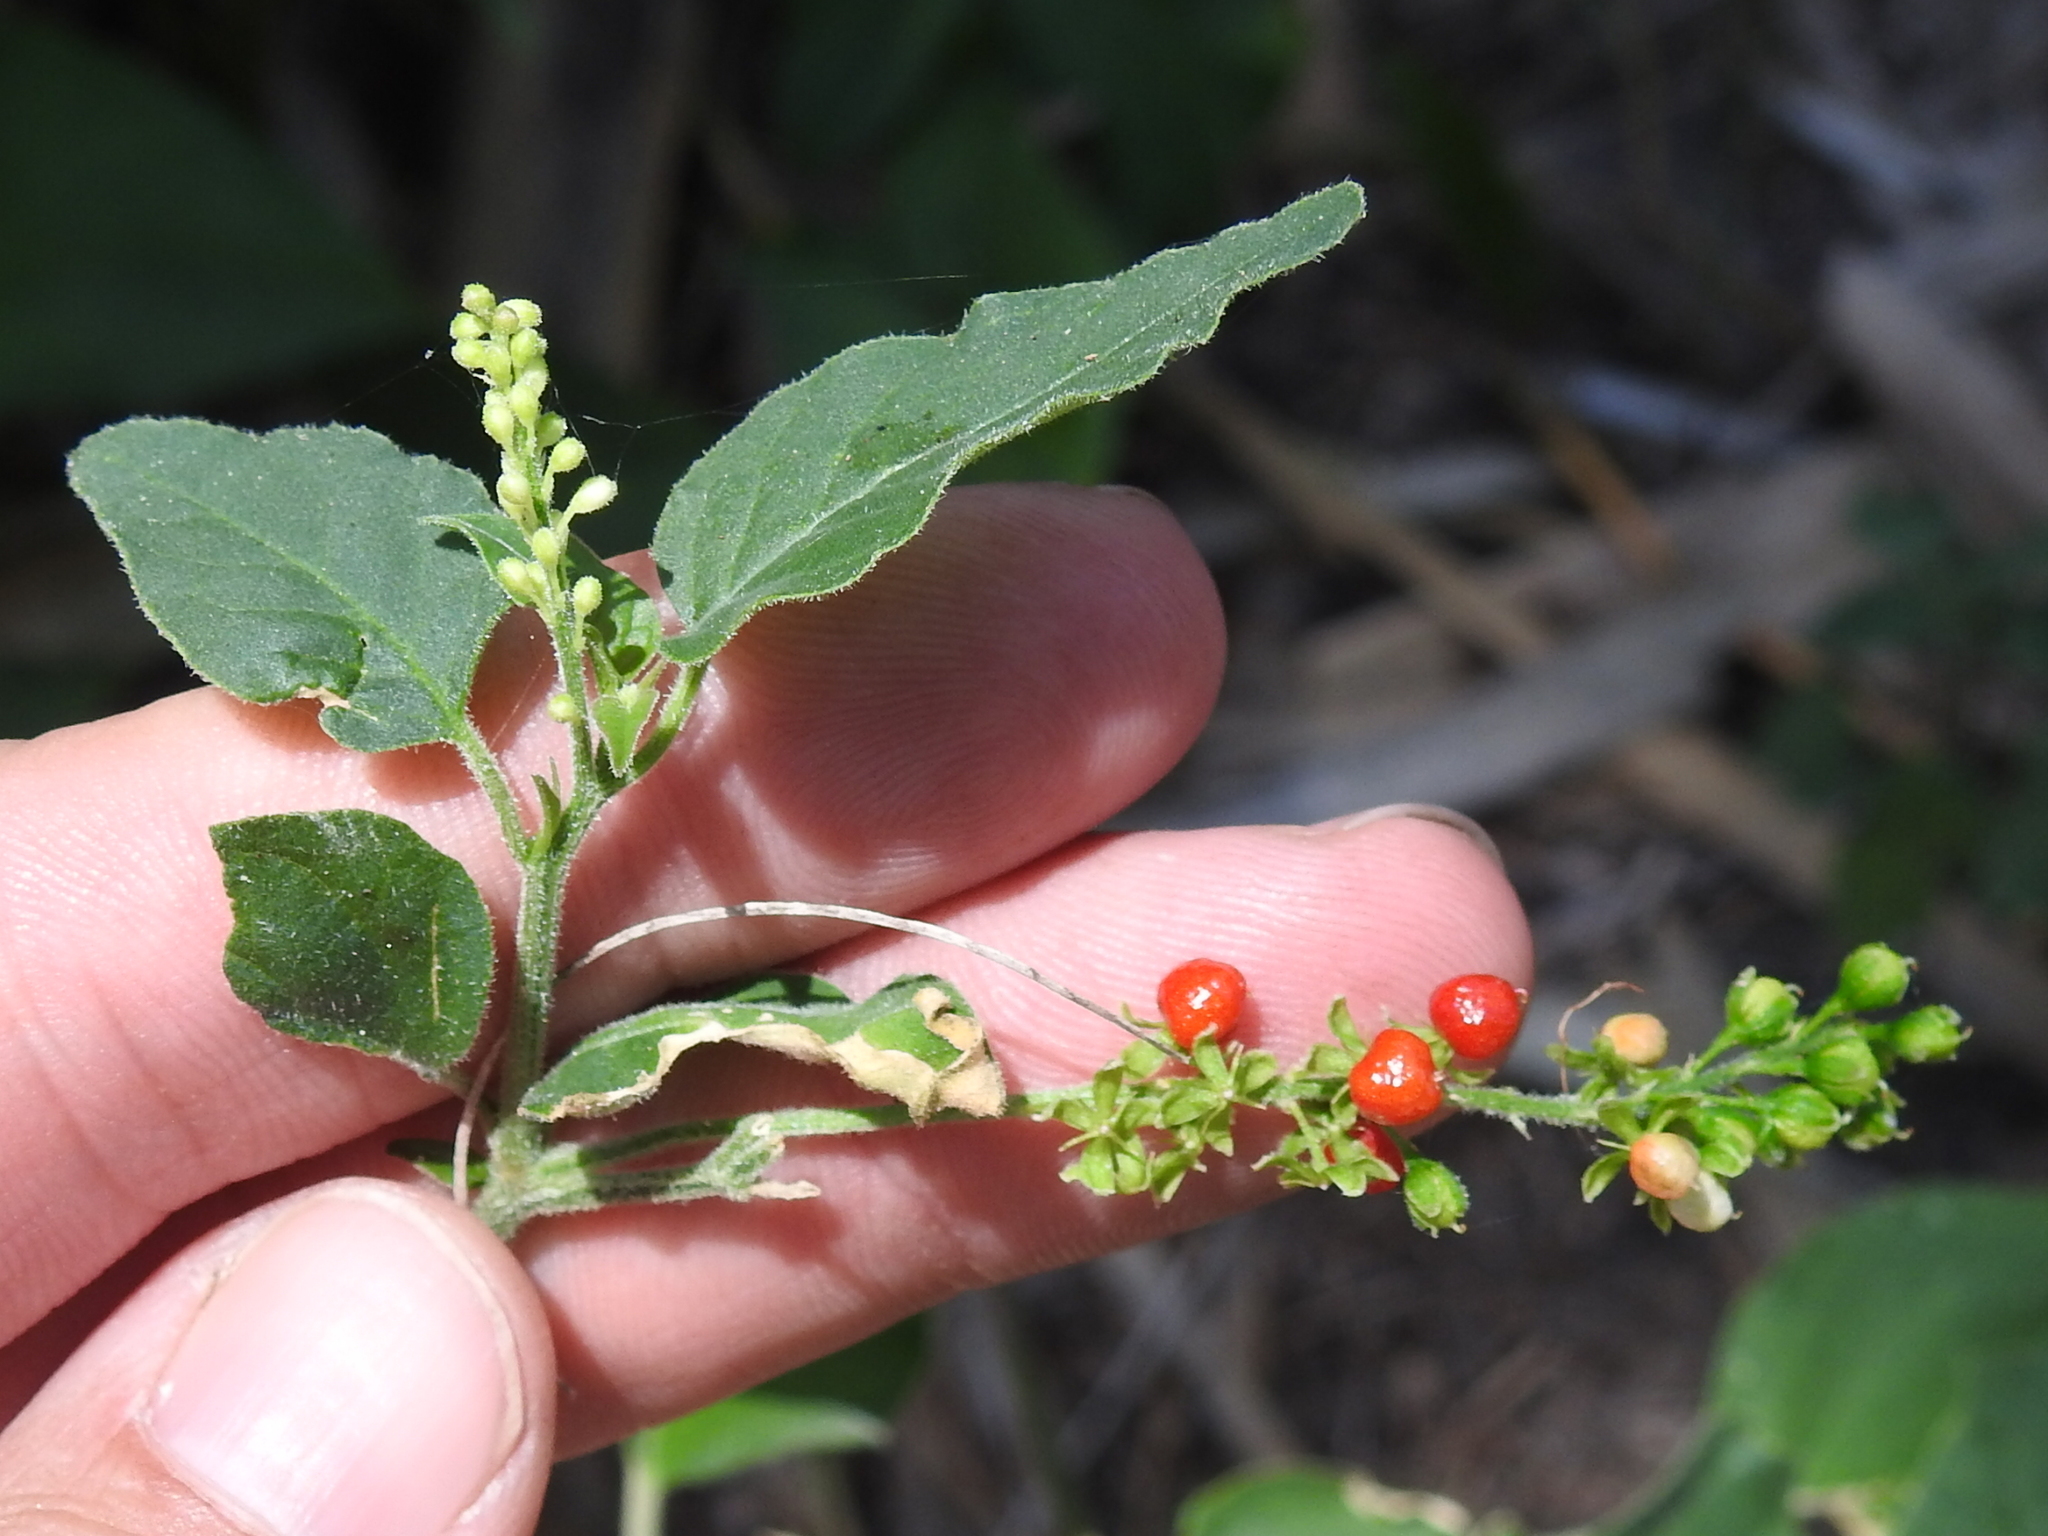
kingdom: Plantae
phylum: Tracheophyta
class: Magnoliopsida
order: Caryophyllales
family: Phytolaccaceae
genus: Rivina
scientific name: Rivina humilis
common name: Rougeplant
